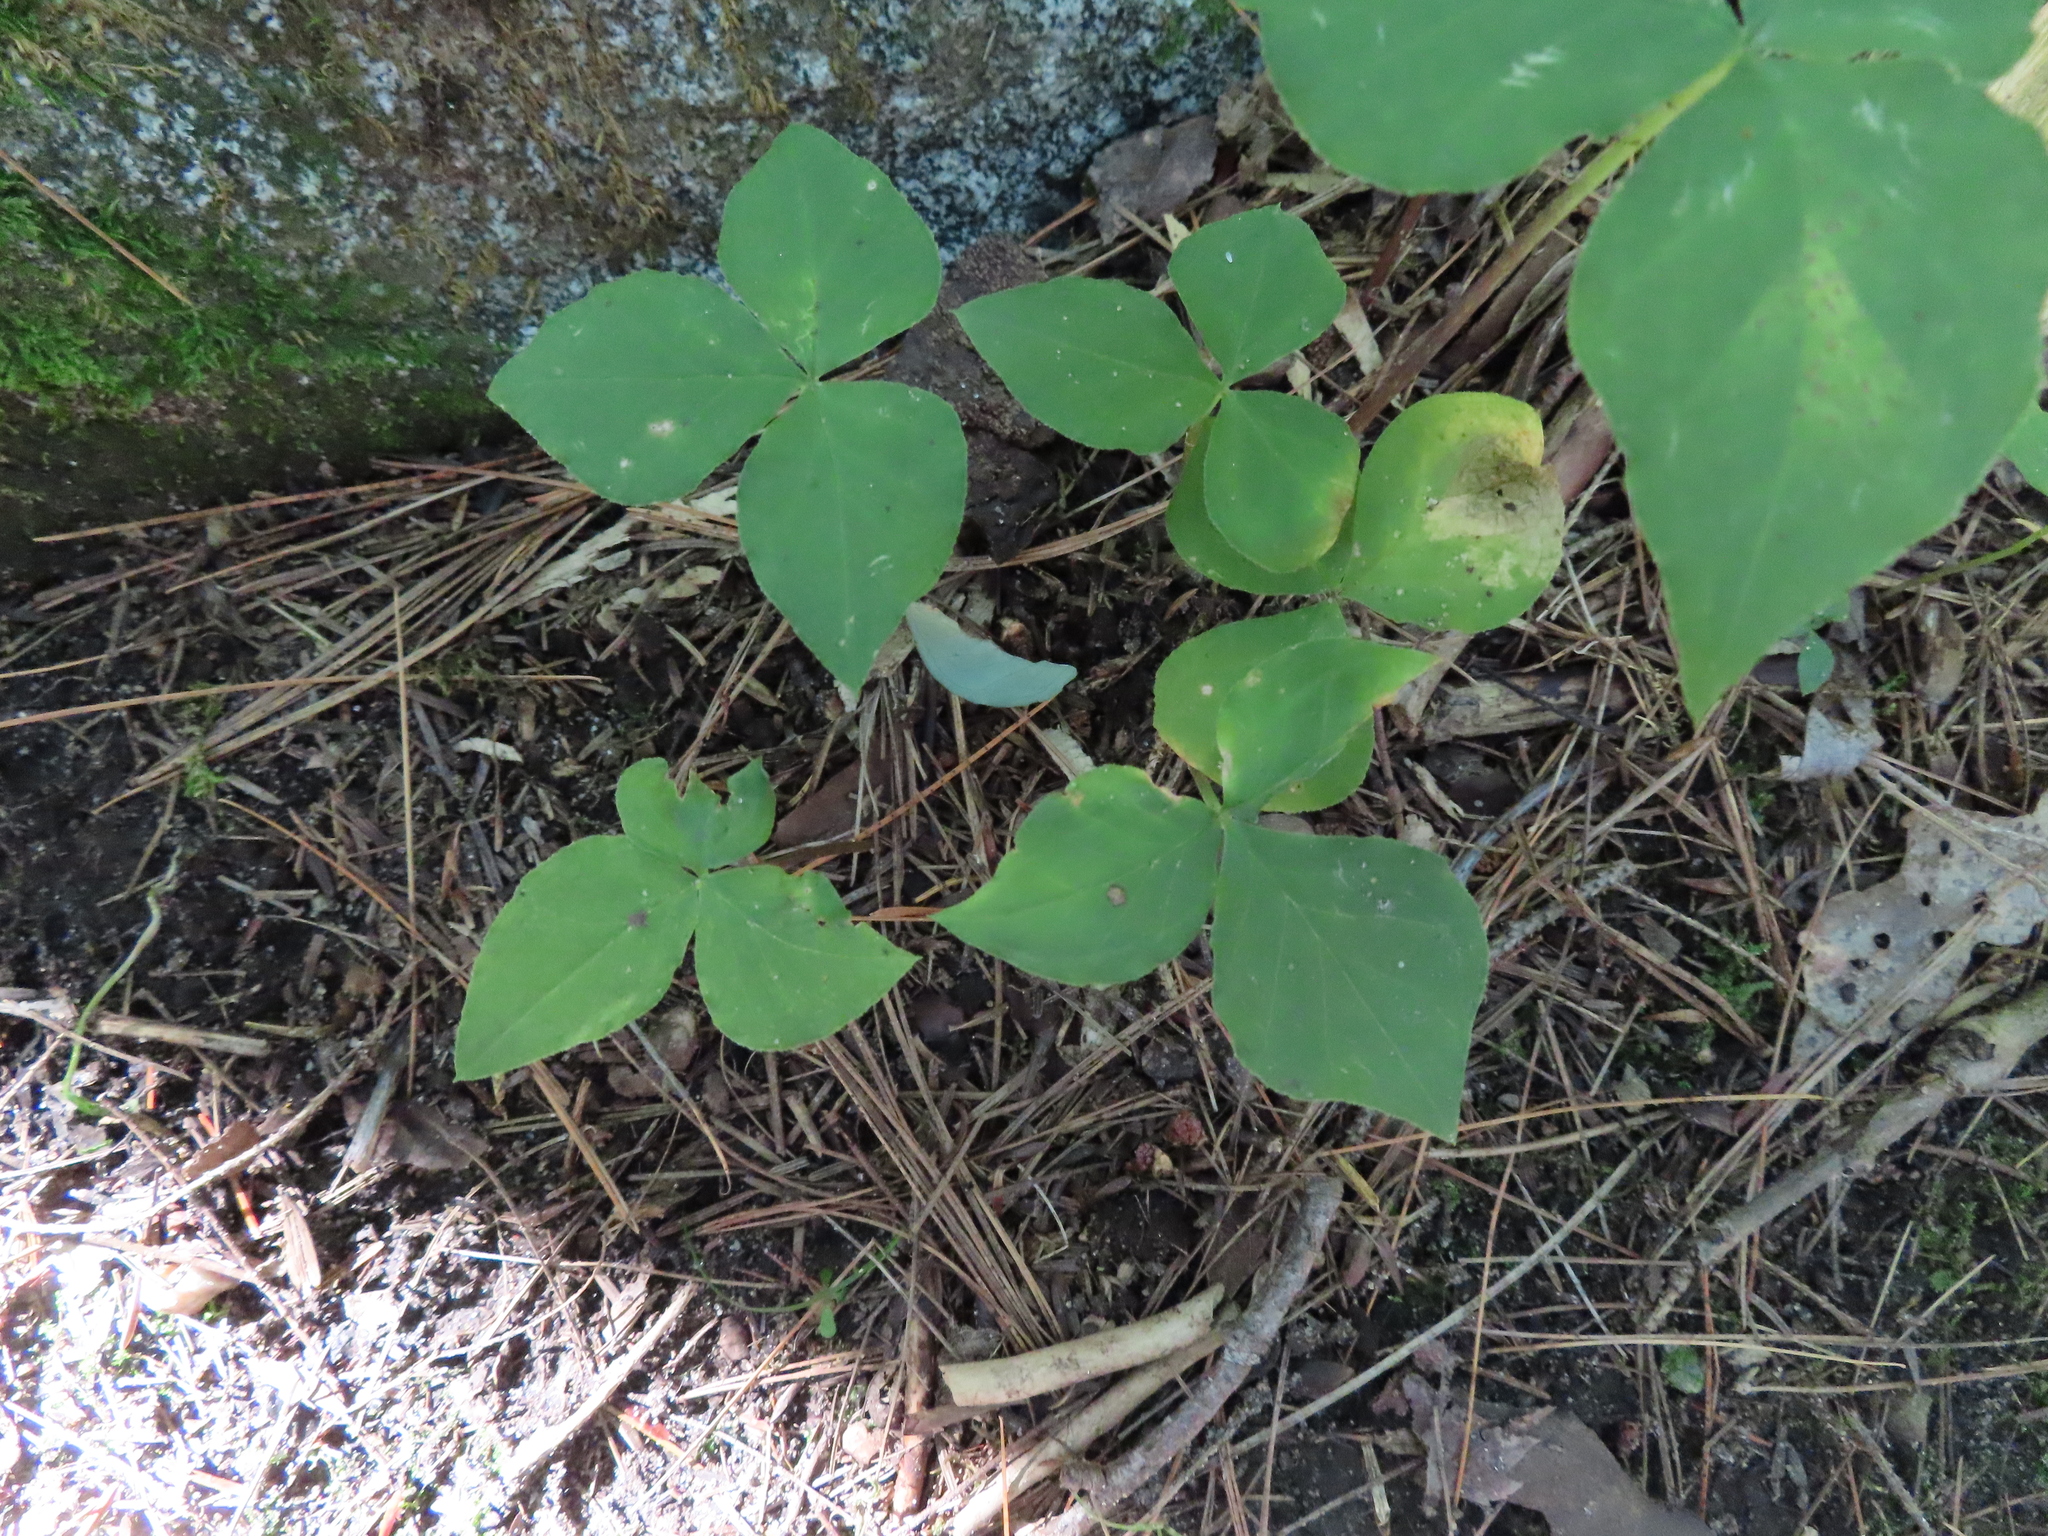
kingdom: Plantae
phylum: Tracheophyta
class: Liliopsida
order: Alismatales
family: Araceae
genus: Arisaema
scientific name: Arisaema triphyllum
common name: Jack-in-the-pulpit
